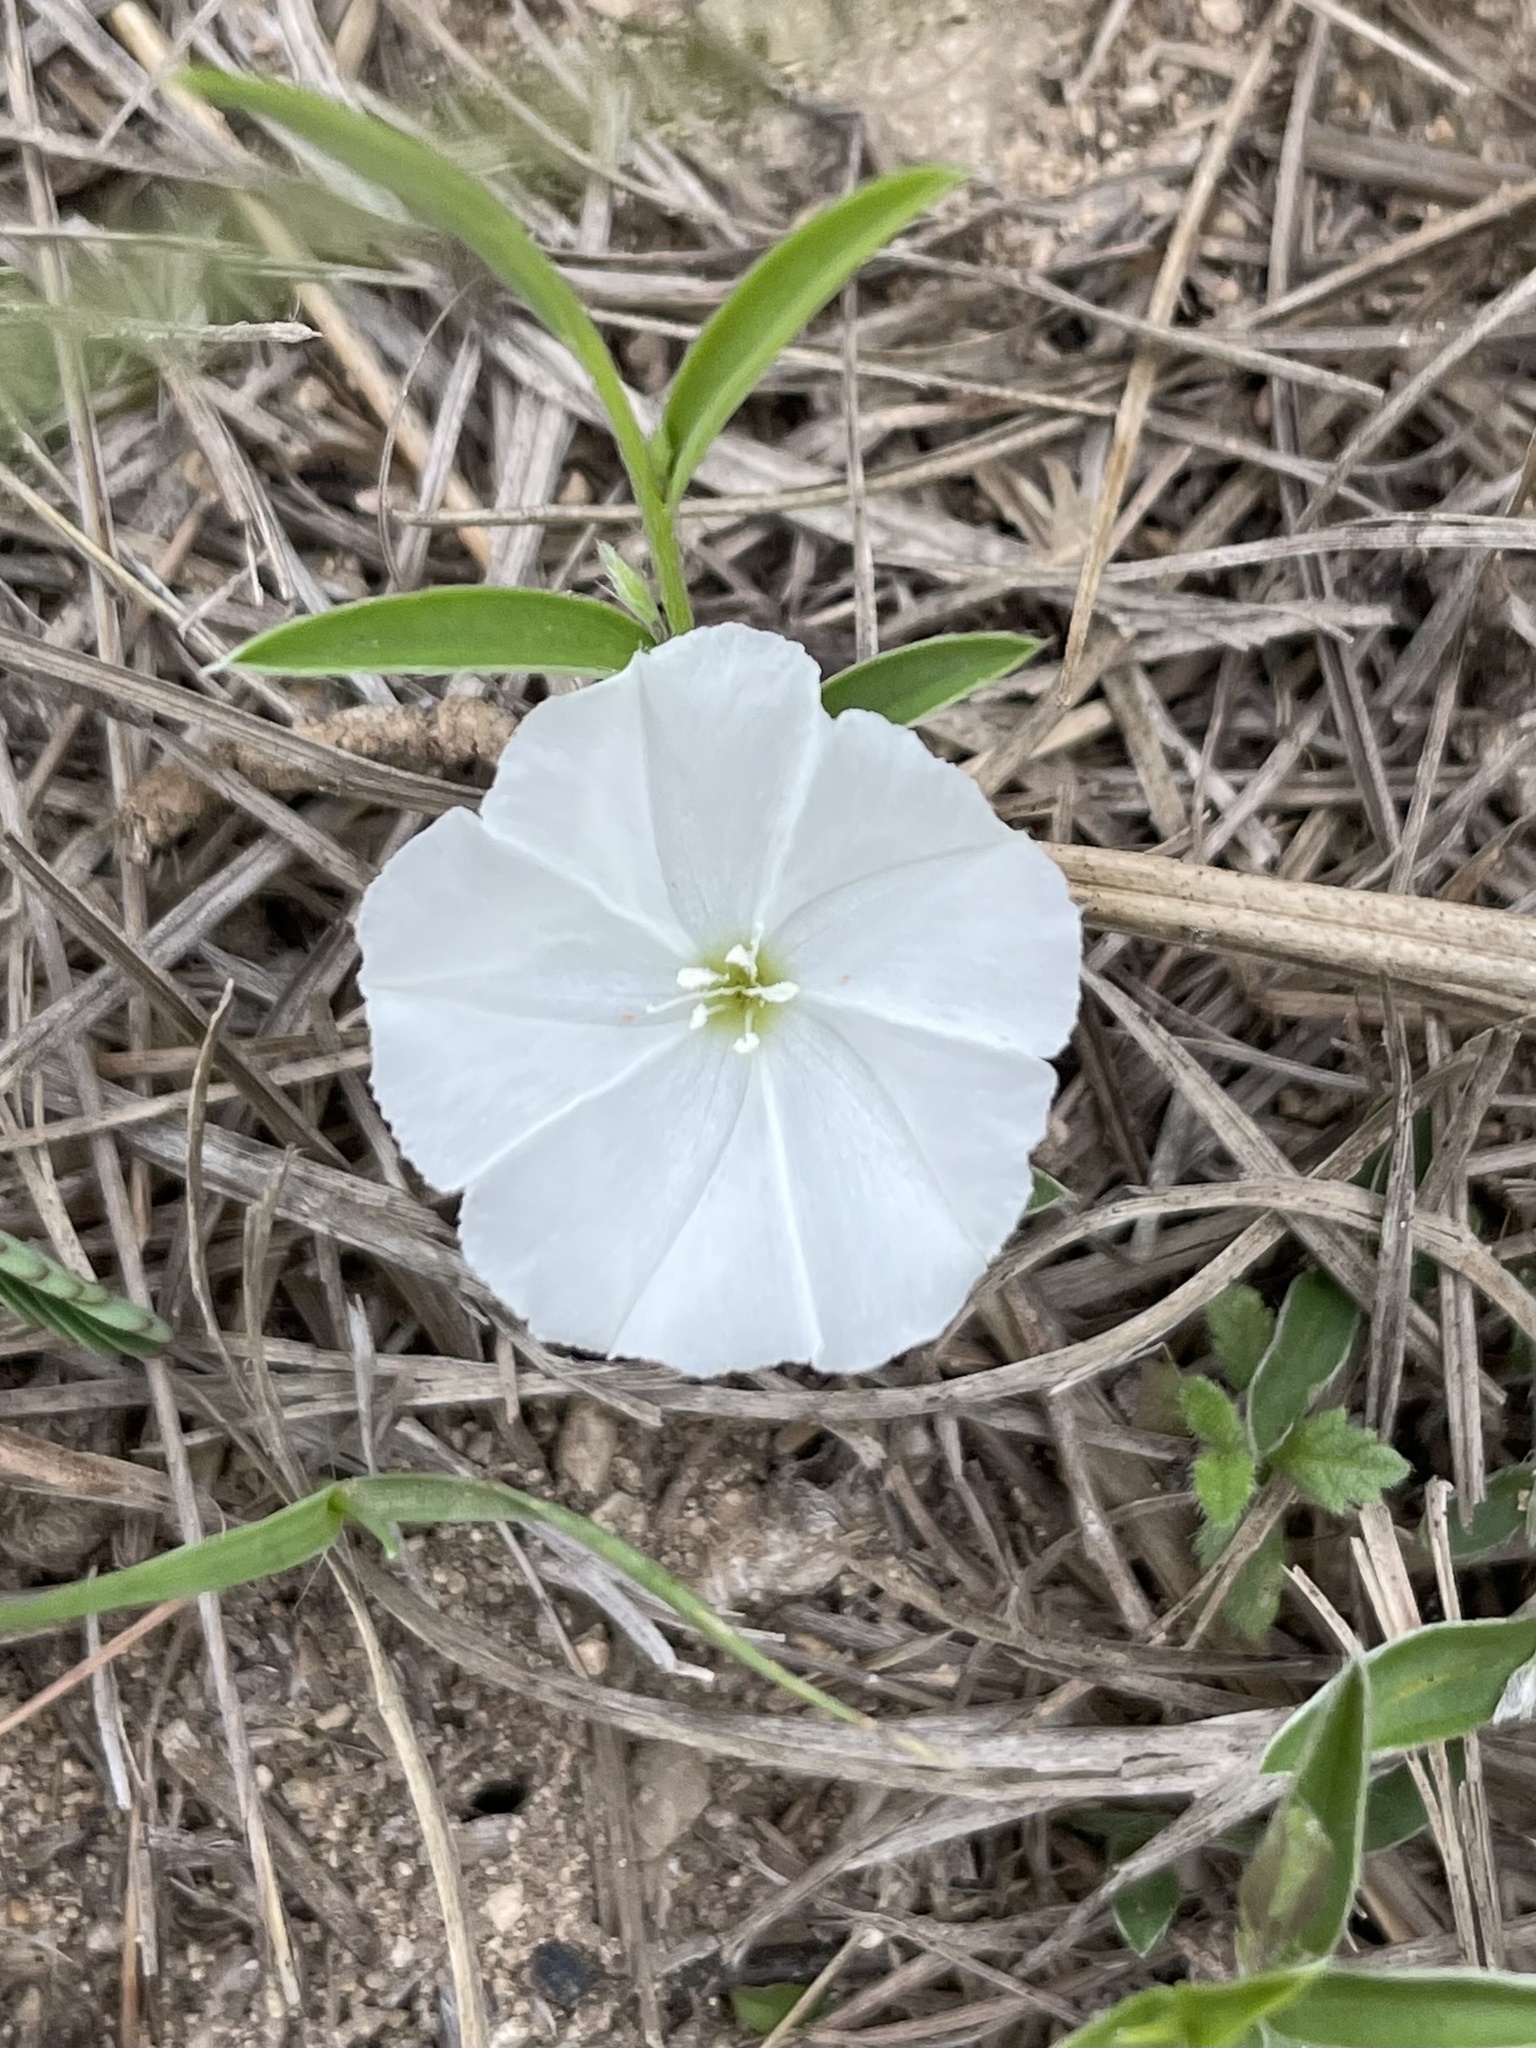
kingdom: Plantae
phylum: Tracheophyta
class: Magnoliopsida
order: Solanales
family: Convolvulaceae
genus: Evolvulus
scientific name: Evolvulus sericeus
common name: Blue dots
